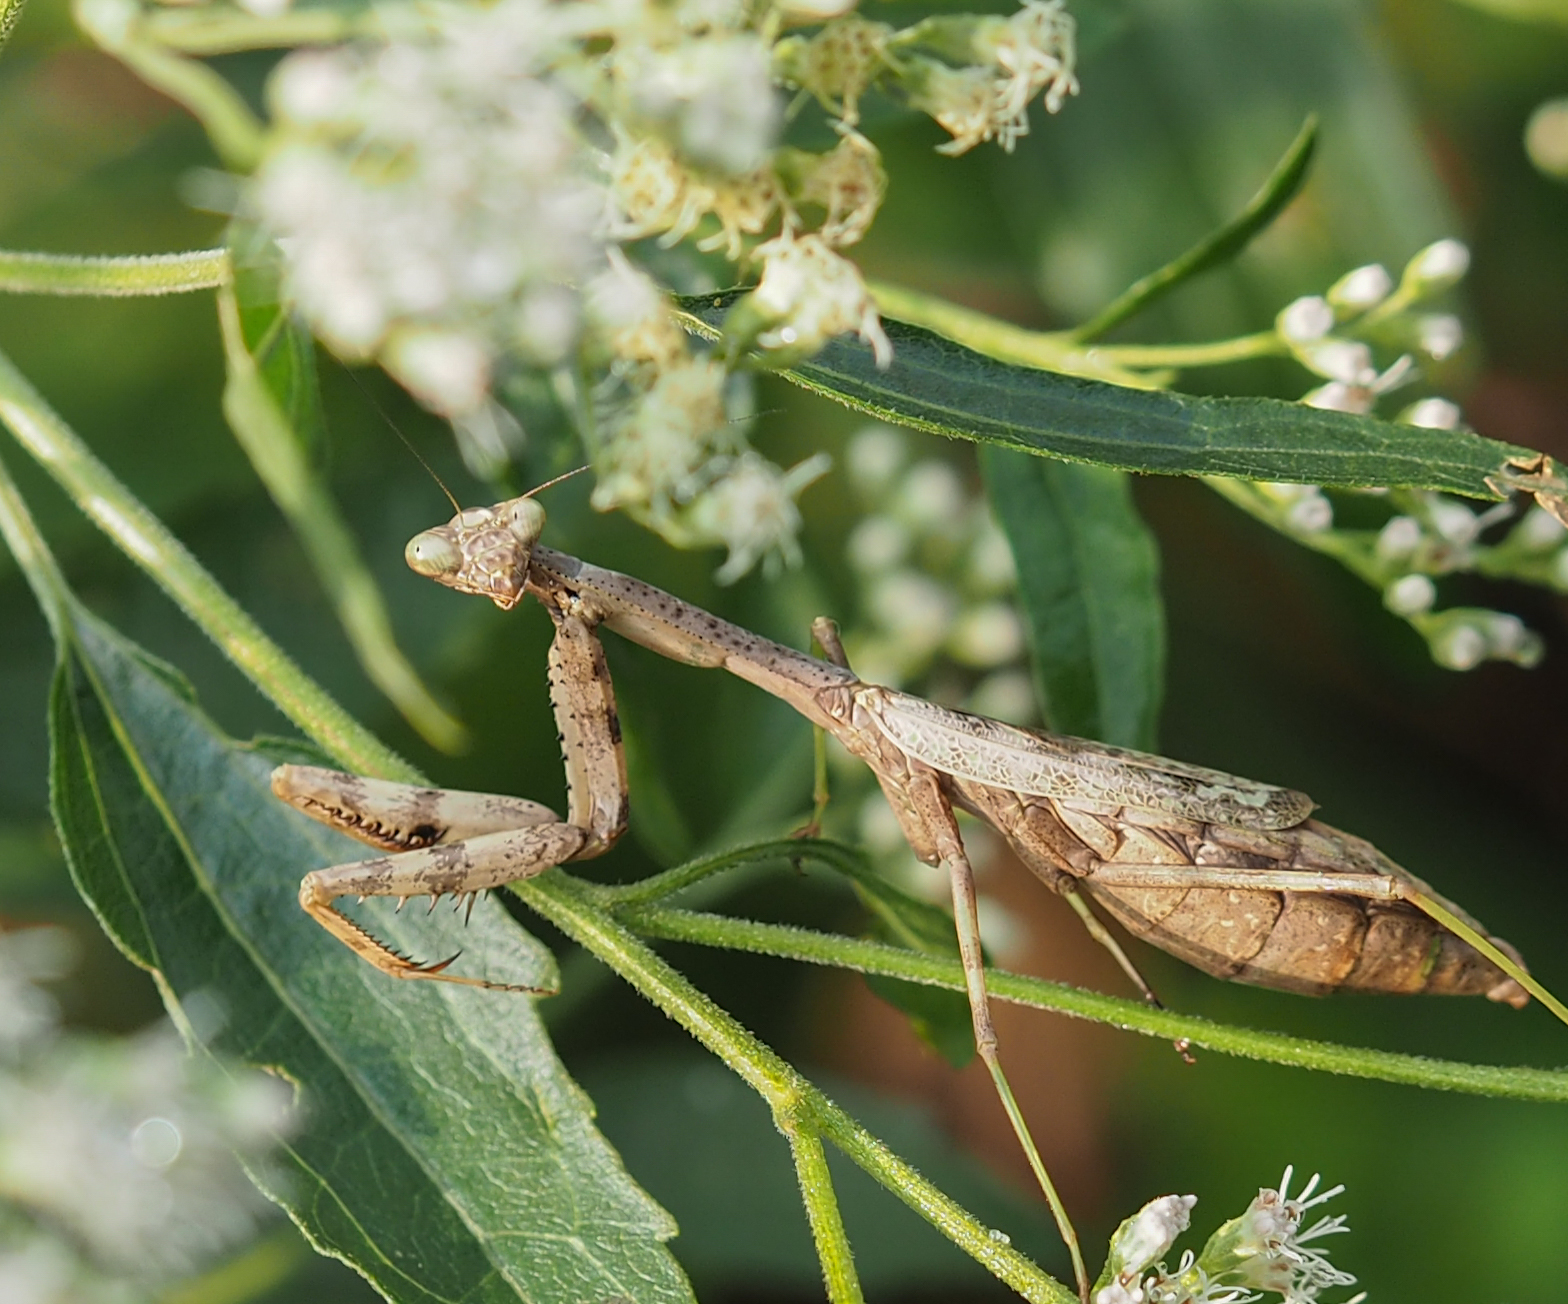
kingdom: Animalia
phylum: Arthropoda
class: Insecta
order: Mantodea
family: Mantidae
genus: Stagmomantis
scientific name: Stagmomantis carolina
